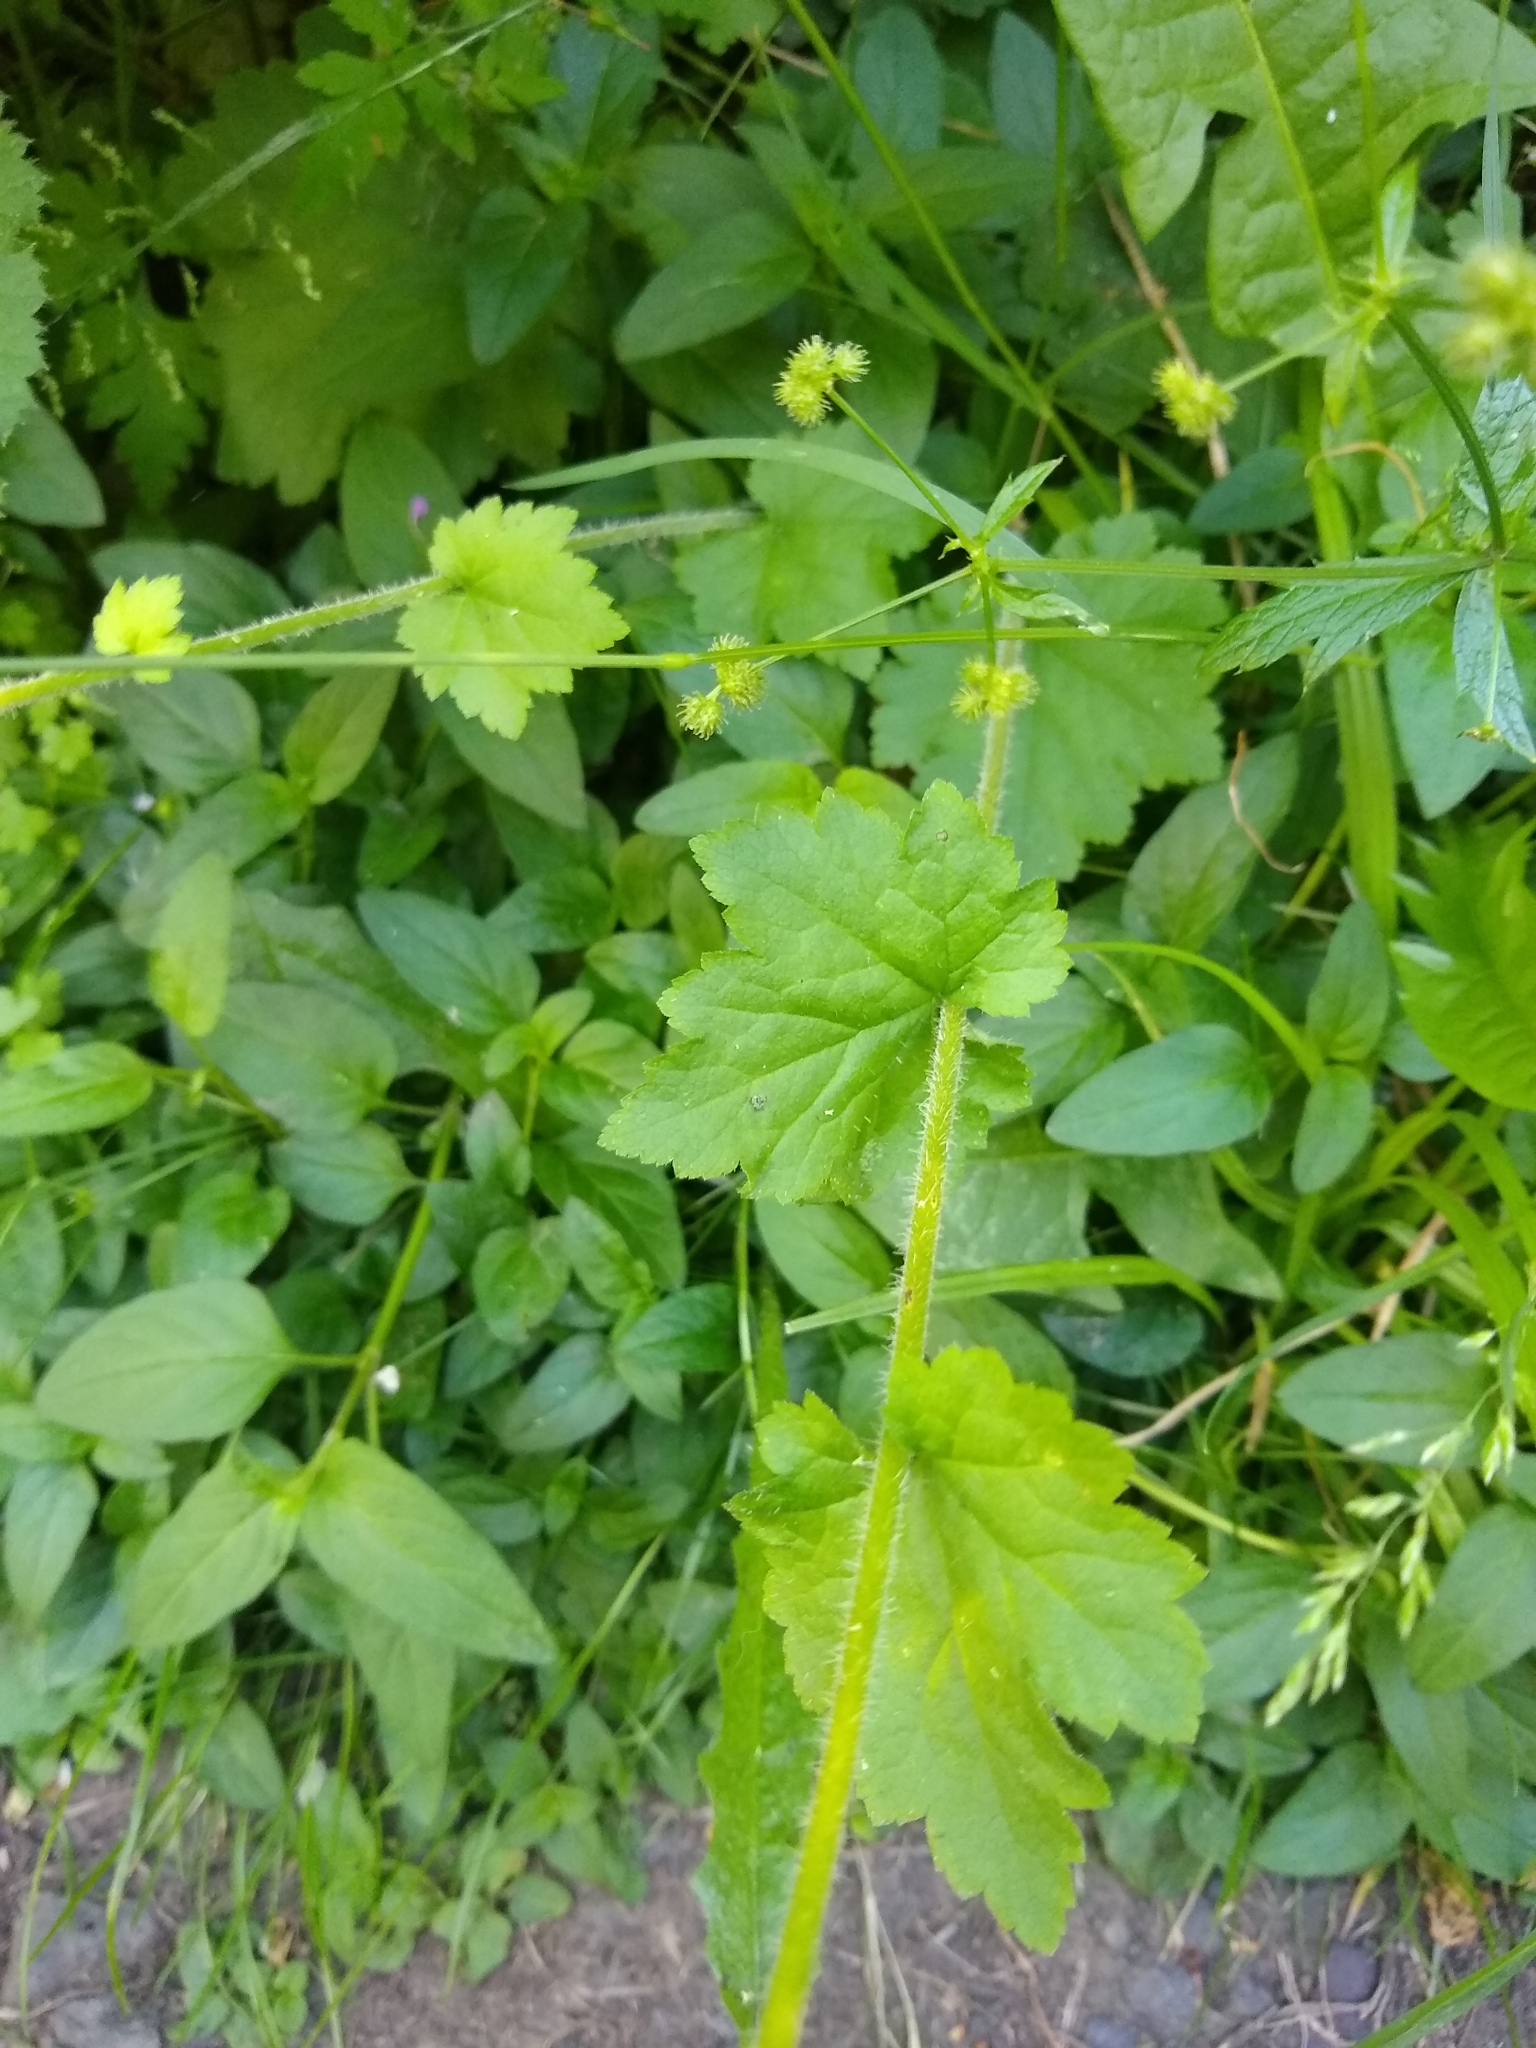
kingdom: Plantae
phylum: Tracheophyta
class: Magnoliopsida
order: Saxifragales
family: Saxifragaceae
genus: Tellima
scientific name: Tellima grandiflora
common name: Fringecups
